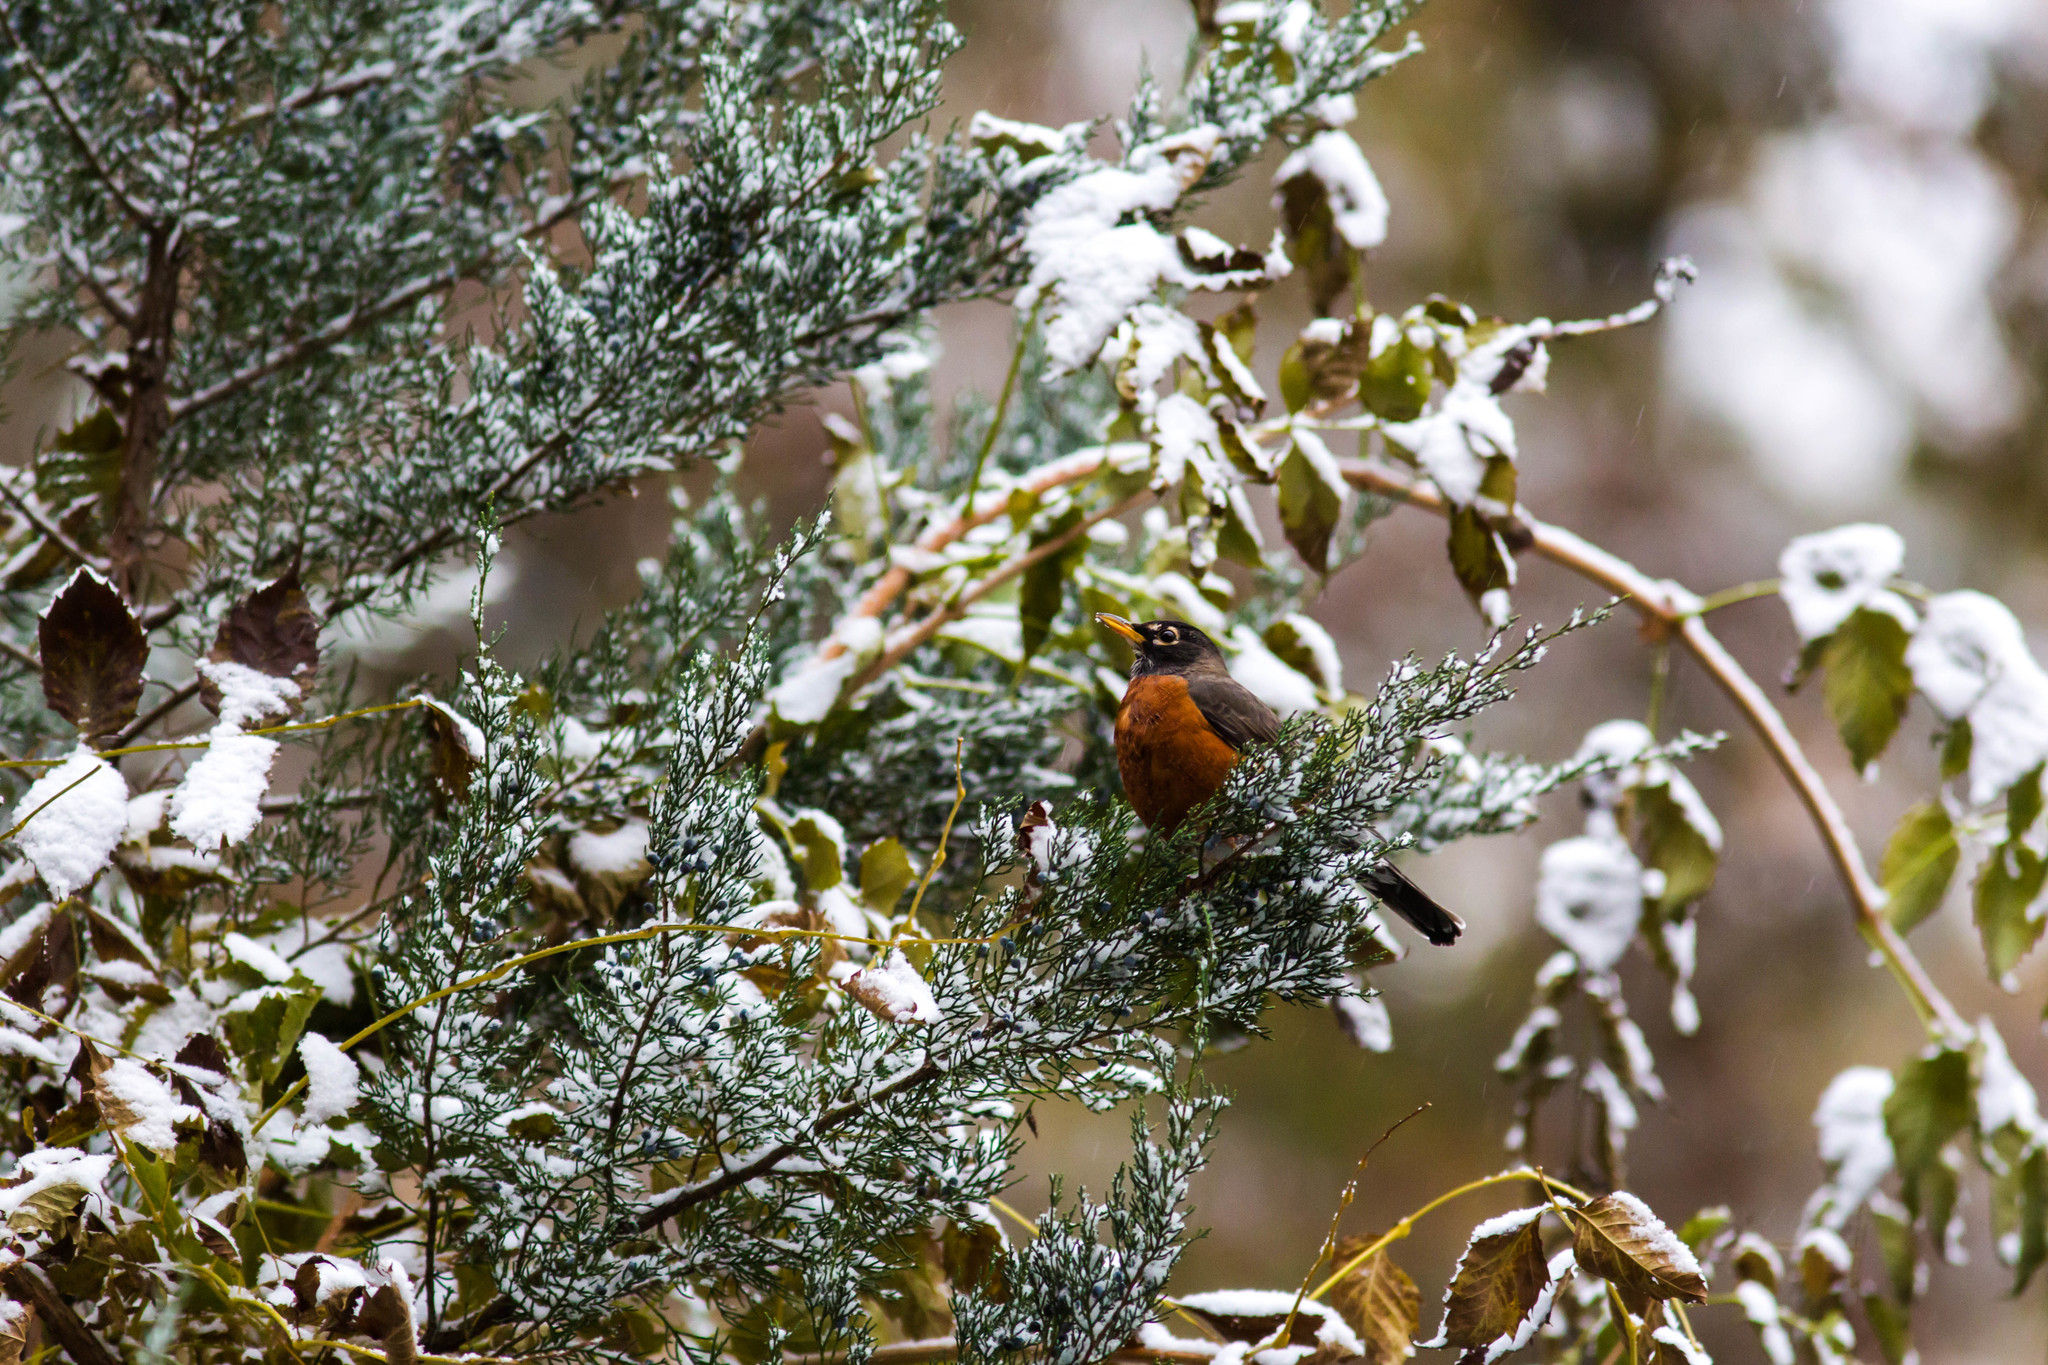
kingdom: Animalia
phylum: Chordata
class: Aves
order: Passeriformes
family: Turdidae
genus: Turdus
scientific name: Turdus migratorius
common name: American robin
